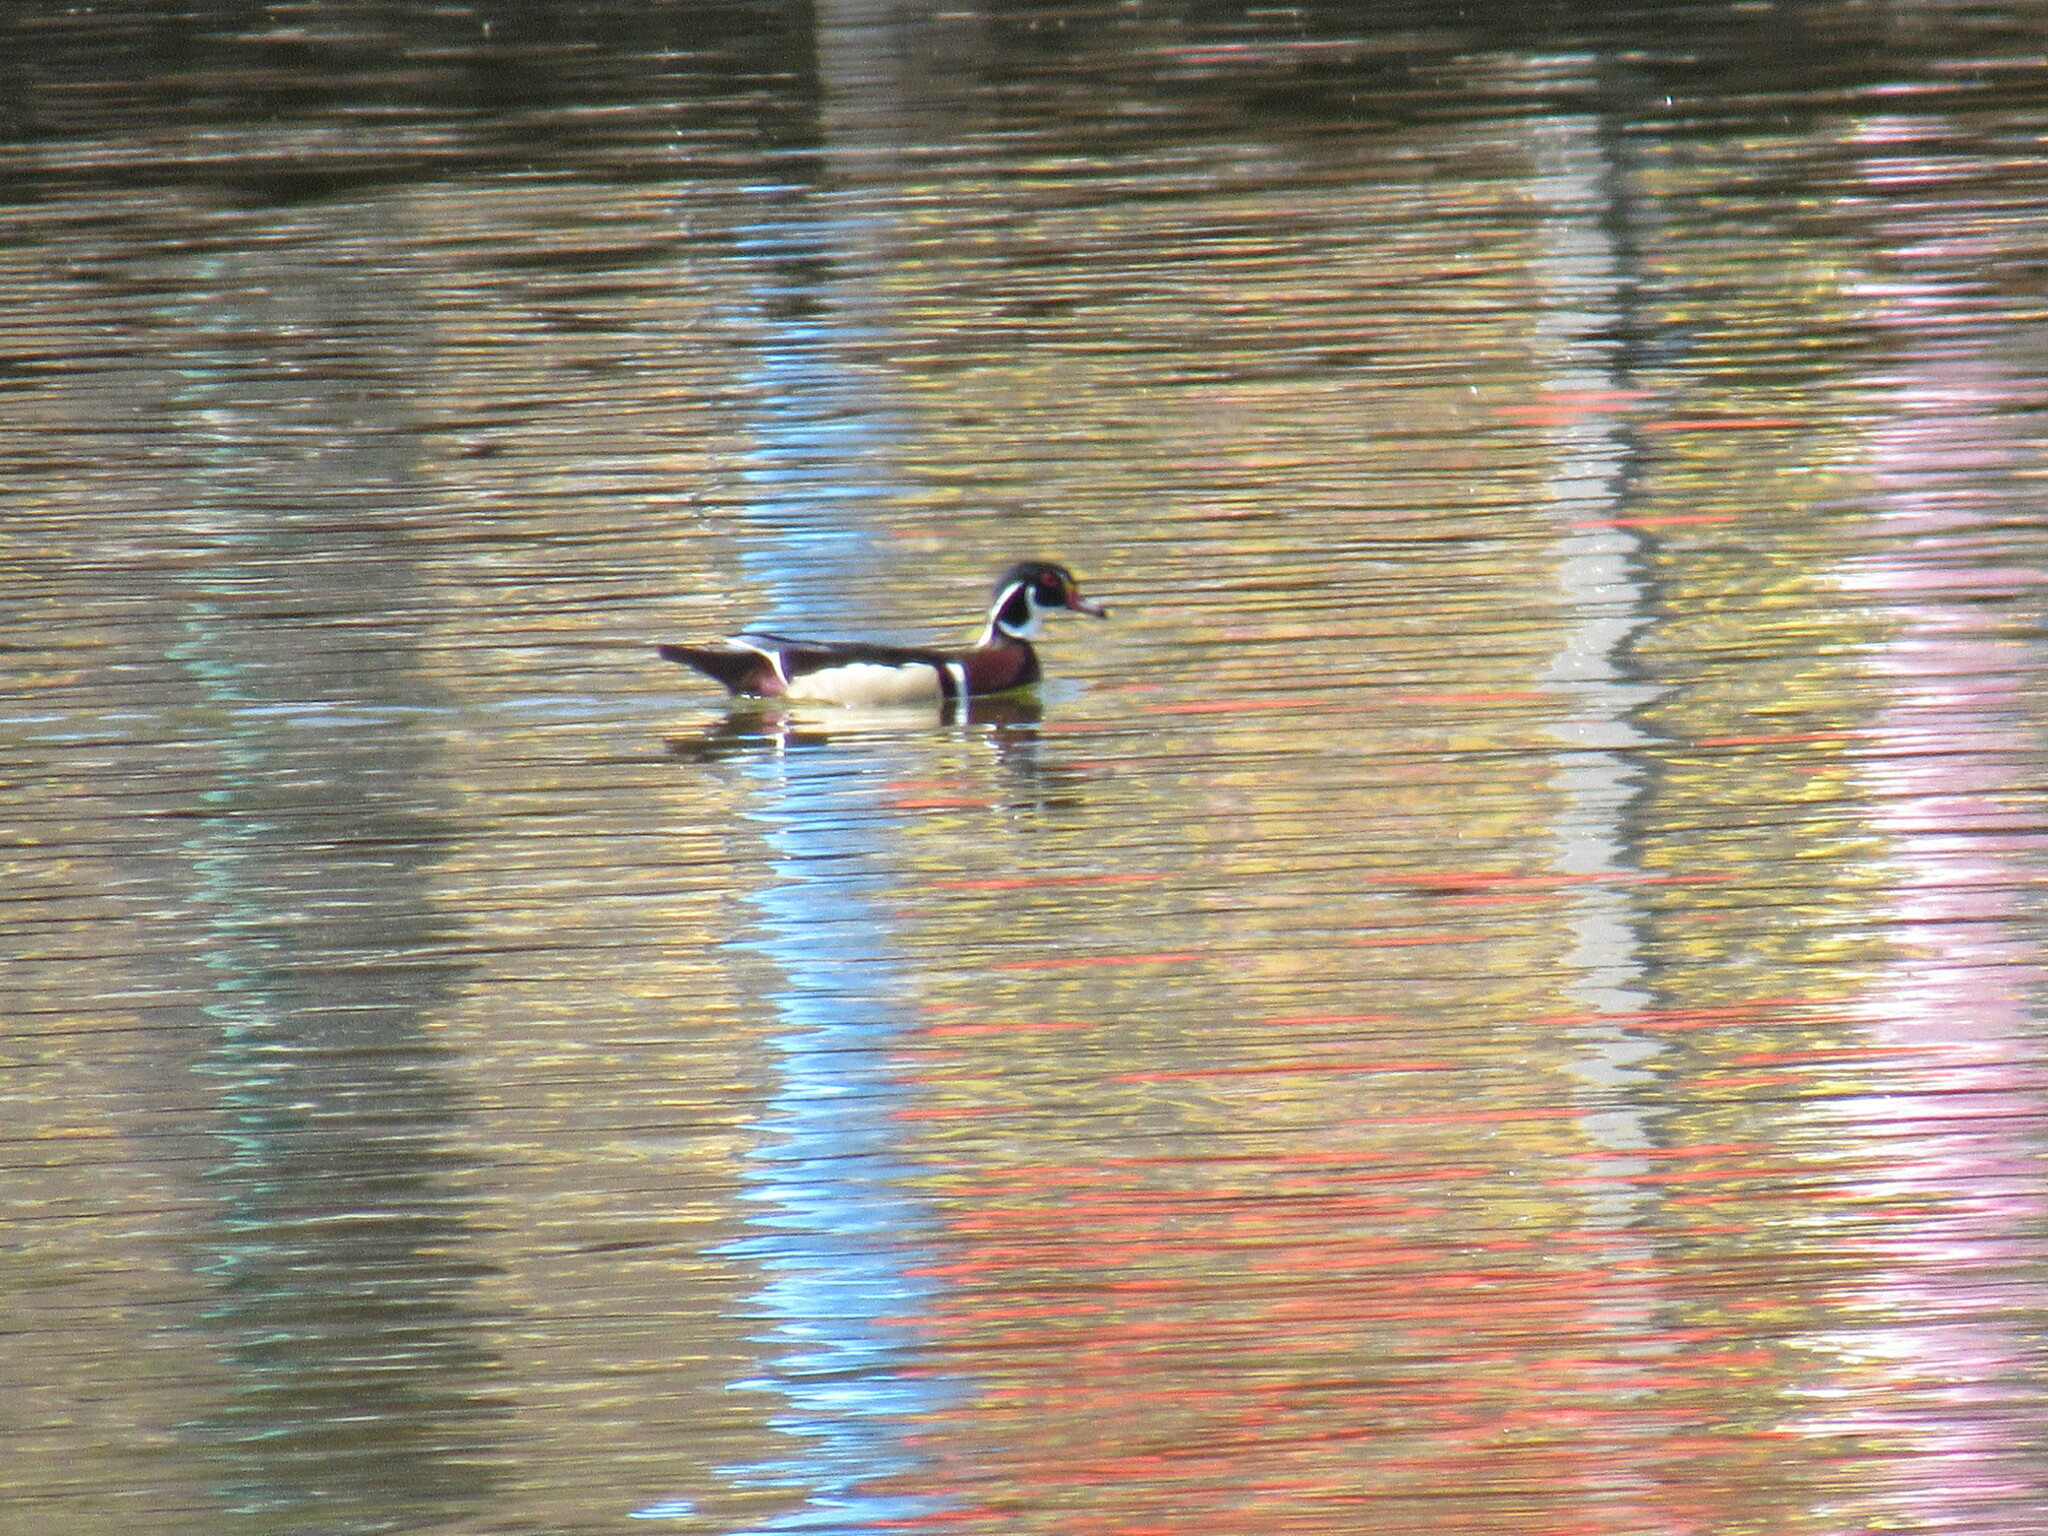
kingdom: Animalia
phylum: Chordata
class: Aves
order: Anseriformes
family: Anatidae
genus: Aix
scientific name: Aix sponsa
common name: Wood duck
